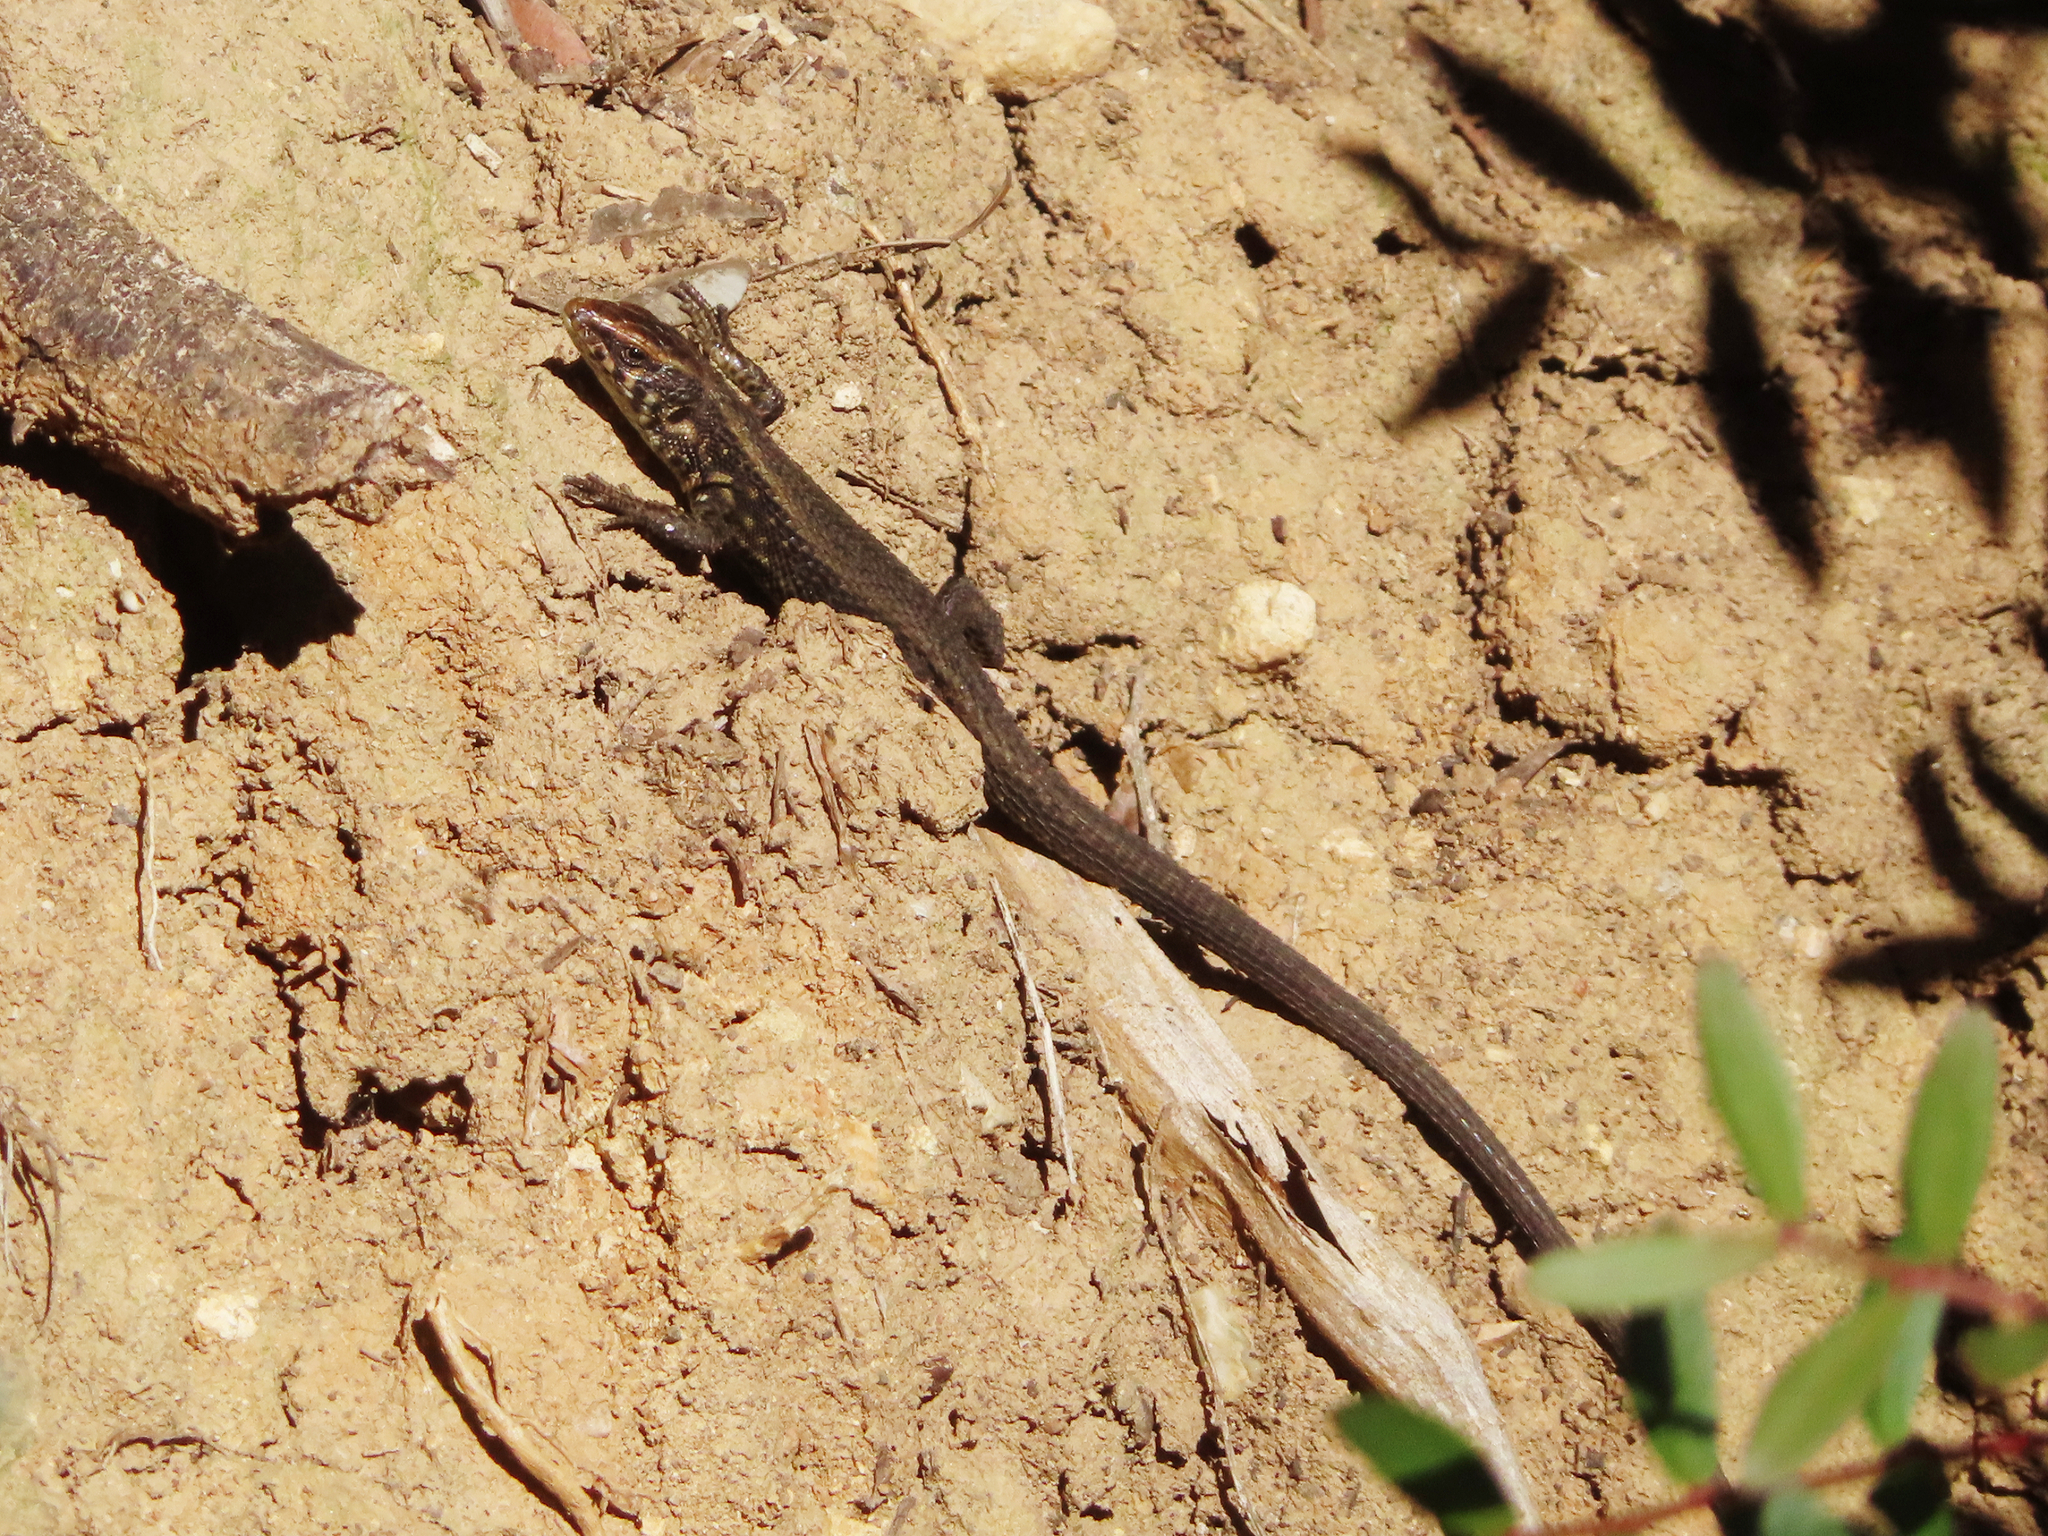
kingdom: Animalia
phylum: Chordata
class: Squamata
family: Lacertidae
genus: Algyroides
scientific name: Algyroides moreoticus
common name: Greek algyroides
